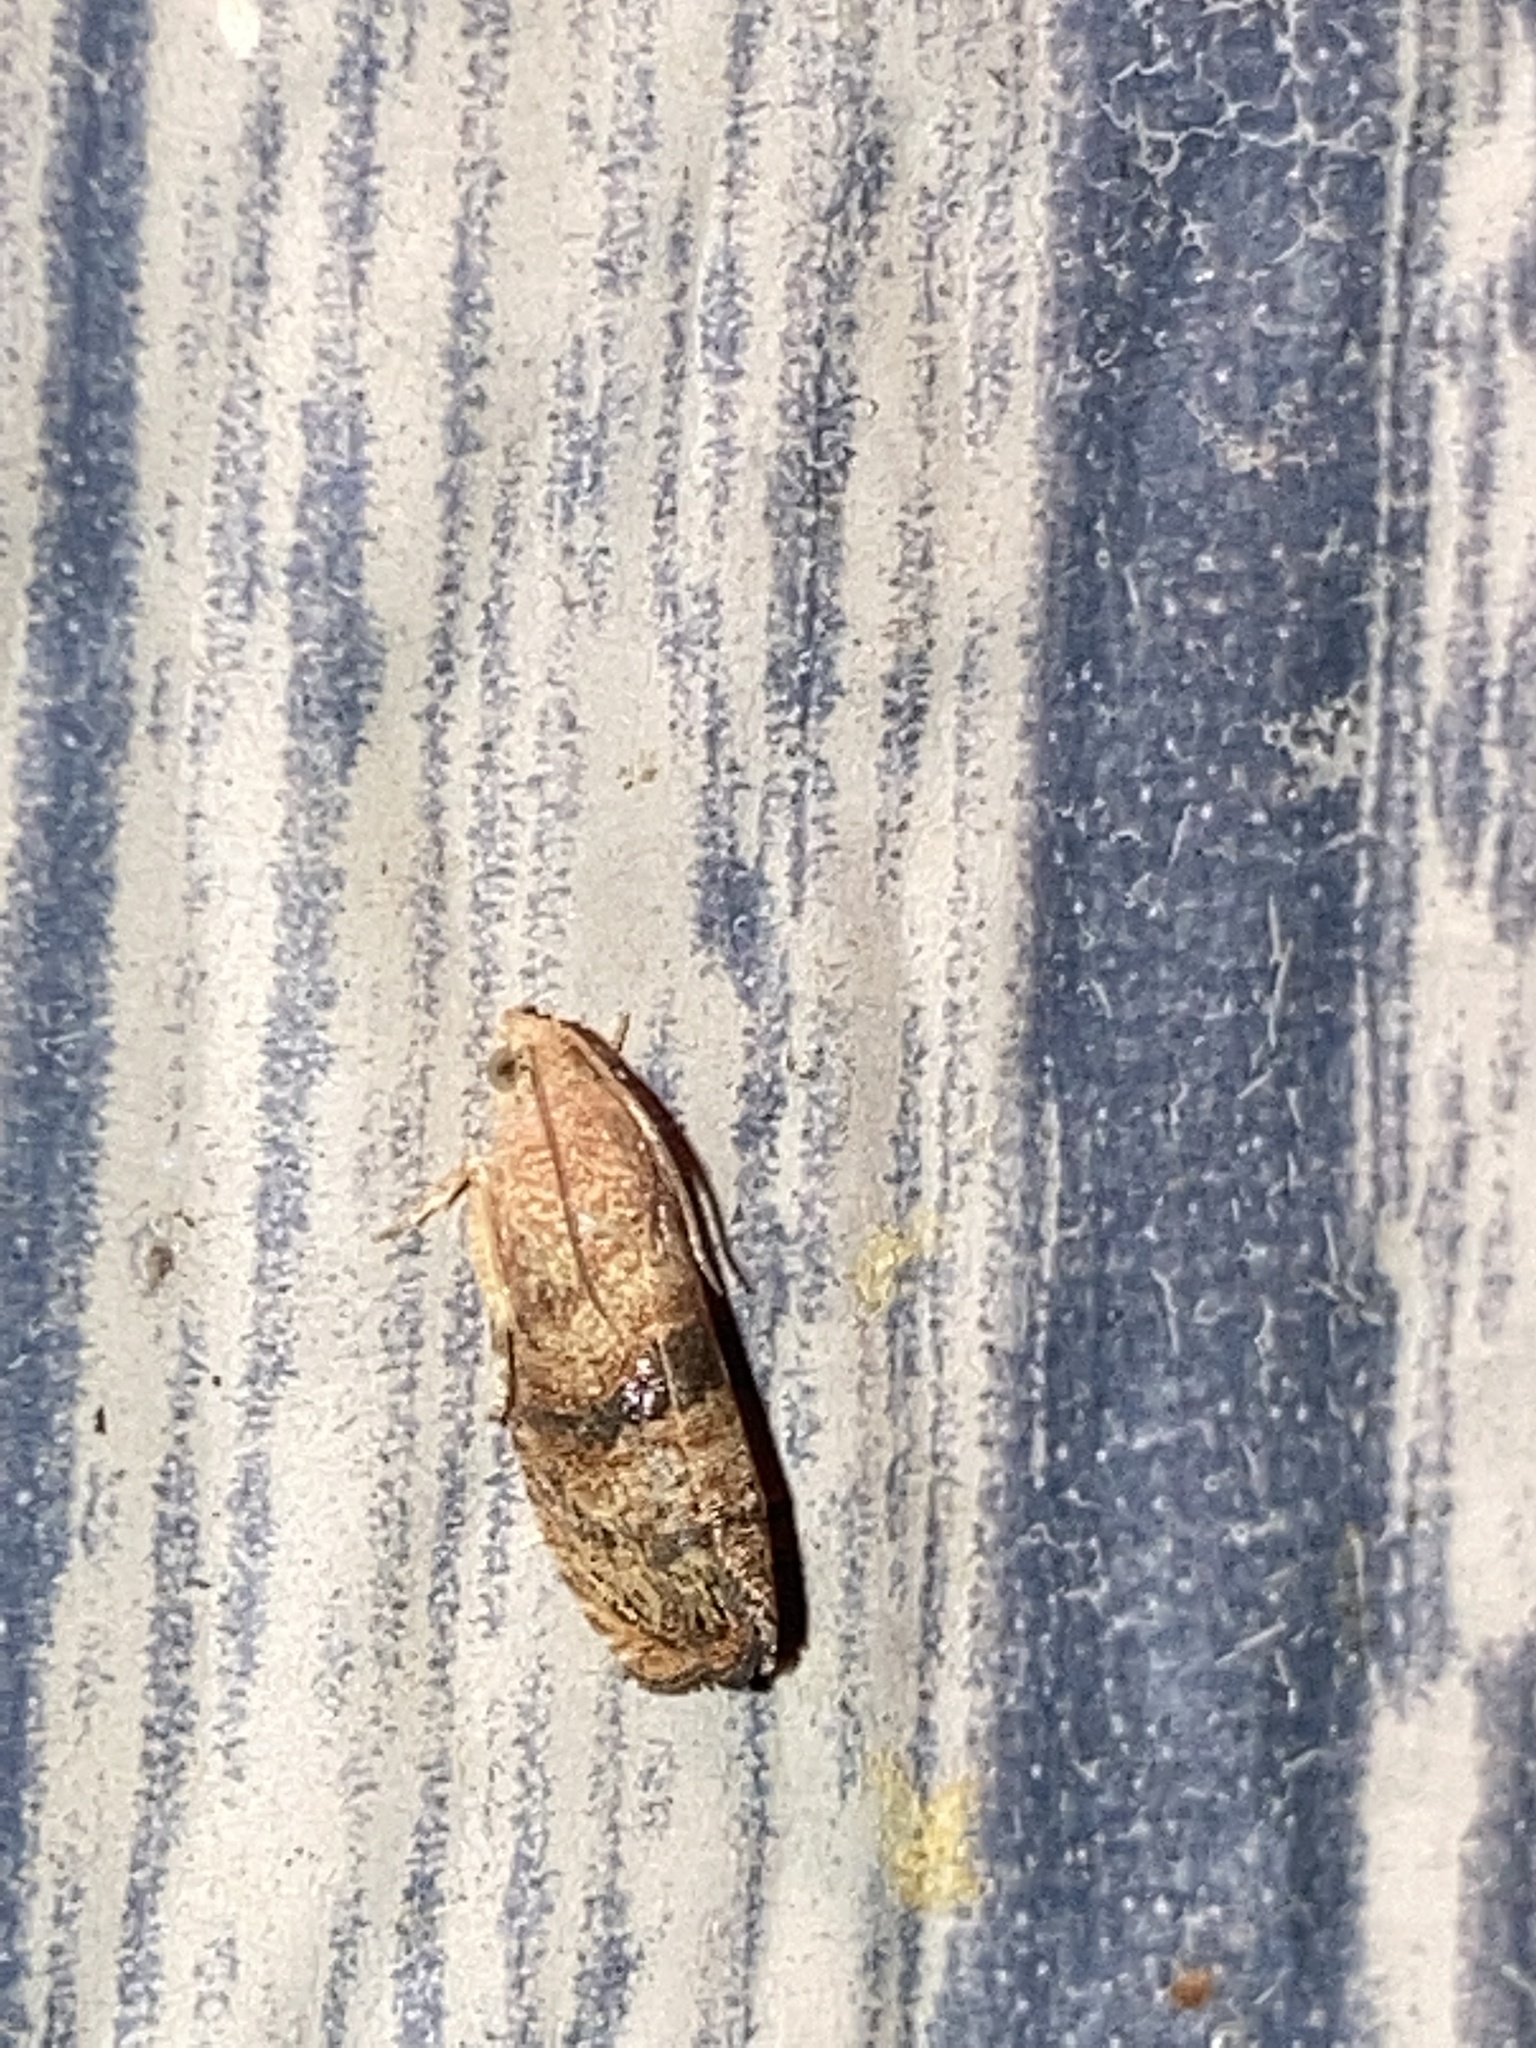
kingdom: Animalia
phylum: Arthropoda
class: Insecta
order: Lepidoptera
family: Tortricidae
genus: Cydia
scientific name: Cydia latiferreana
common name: Filbertworm moth
